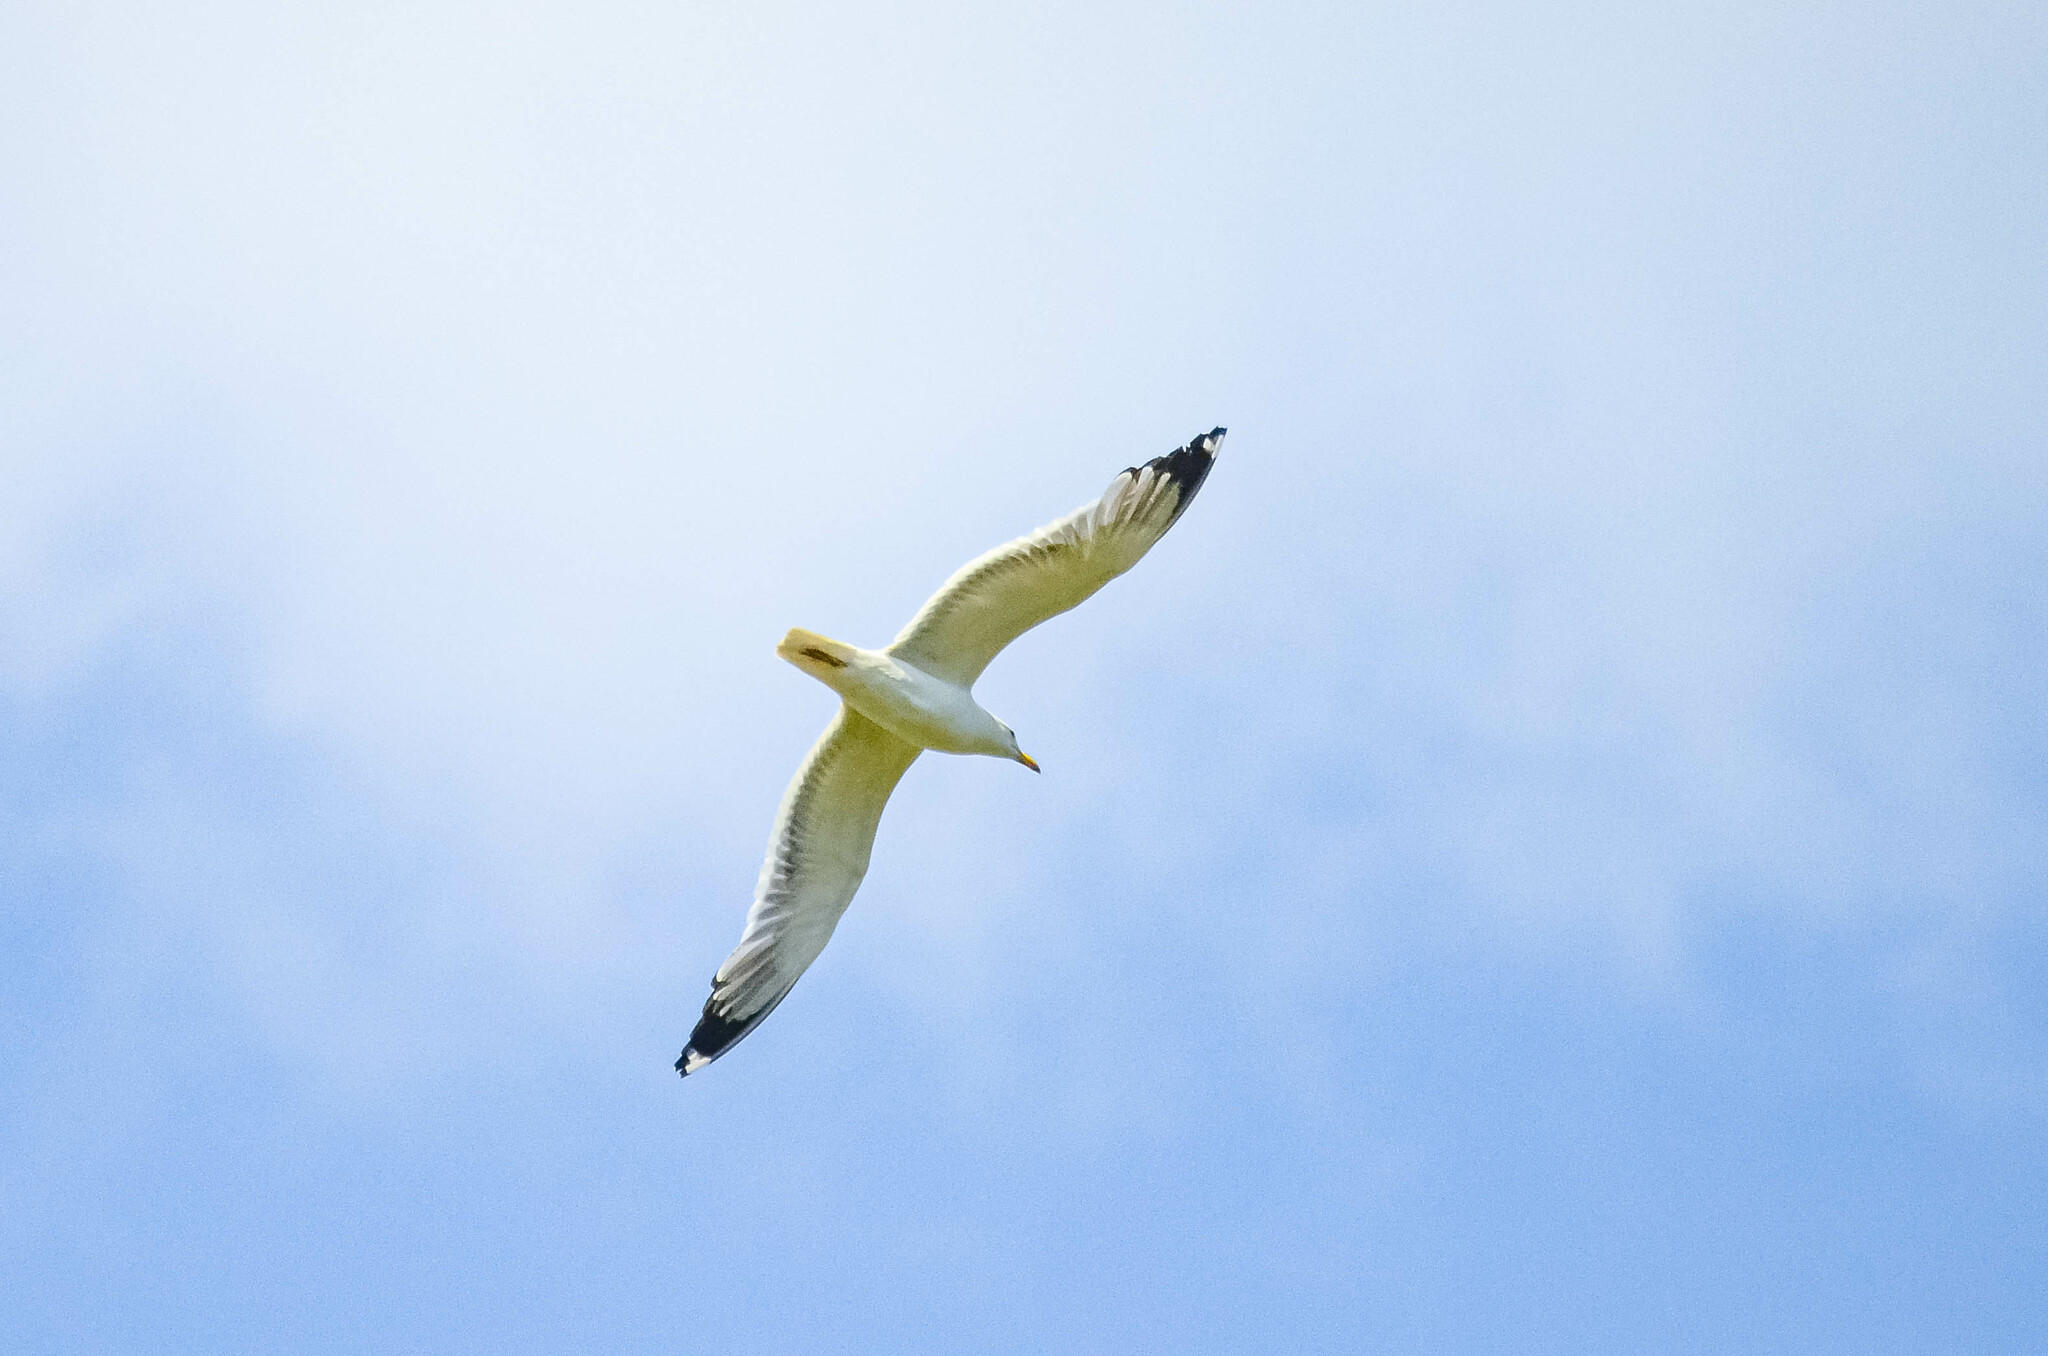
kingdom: Animalia
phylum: Chordata
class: Aves
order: Charadriiformes
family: Laridae
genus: Larus
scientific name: Larus fuscus
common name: Lesser black-backed gull
